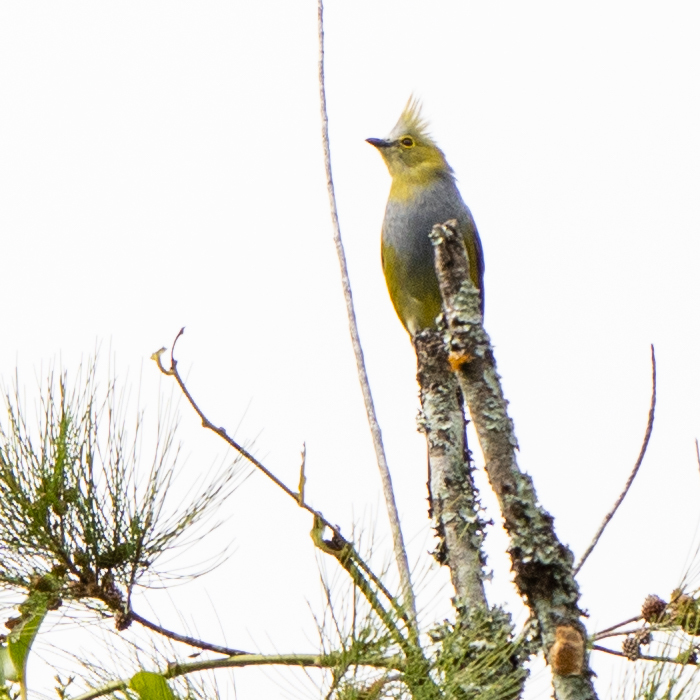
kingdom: Animalia
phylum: Chordata
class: Aves
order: Passeriformes
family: Ptilogonatidae
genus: Ptilogonys
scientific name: Ptilogonys caudatus
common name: Long-tailed silky-flycatcher
